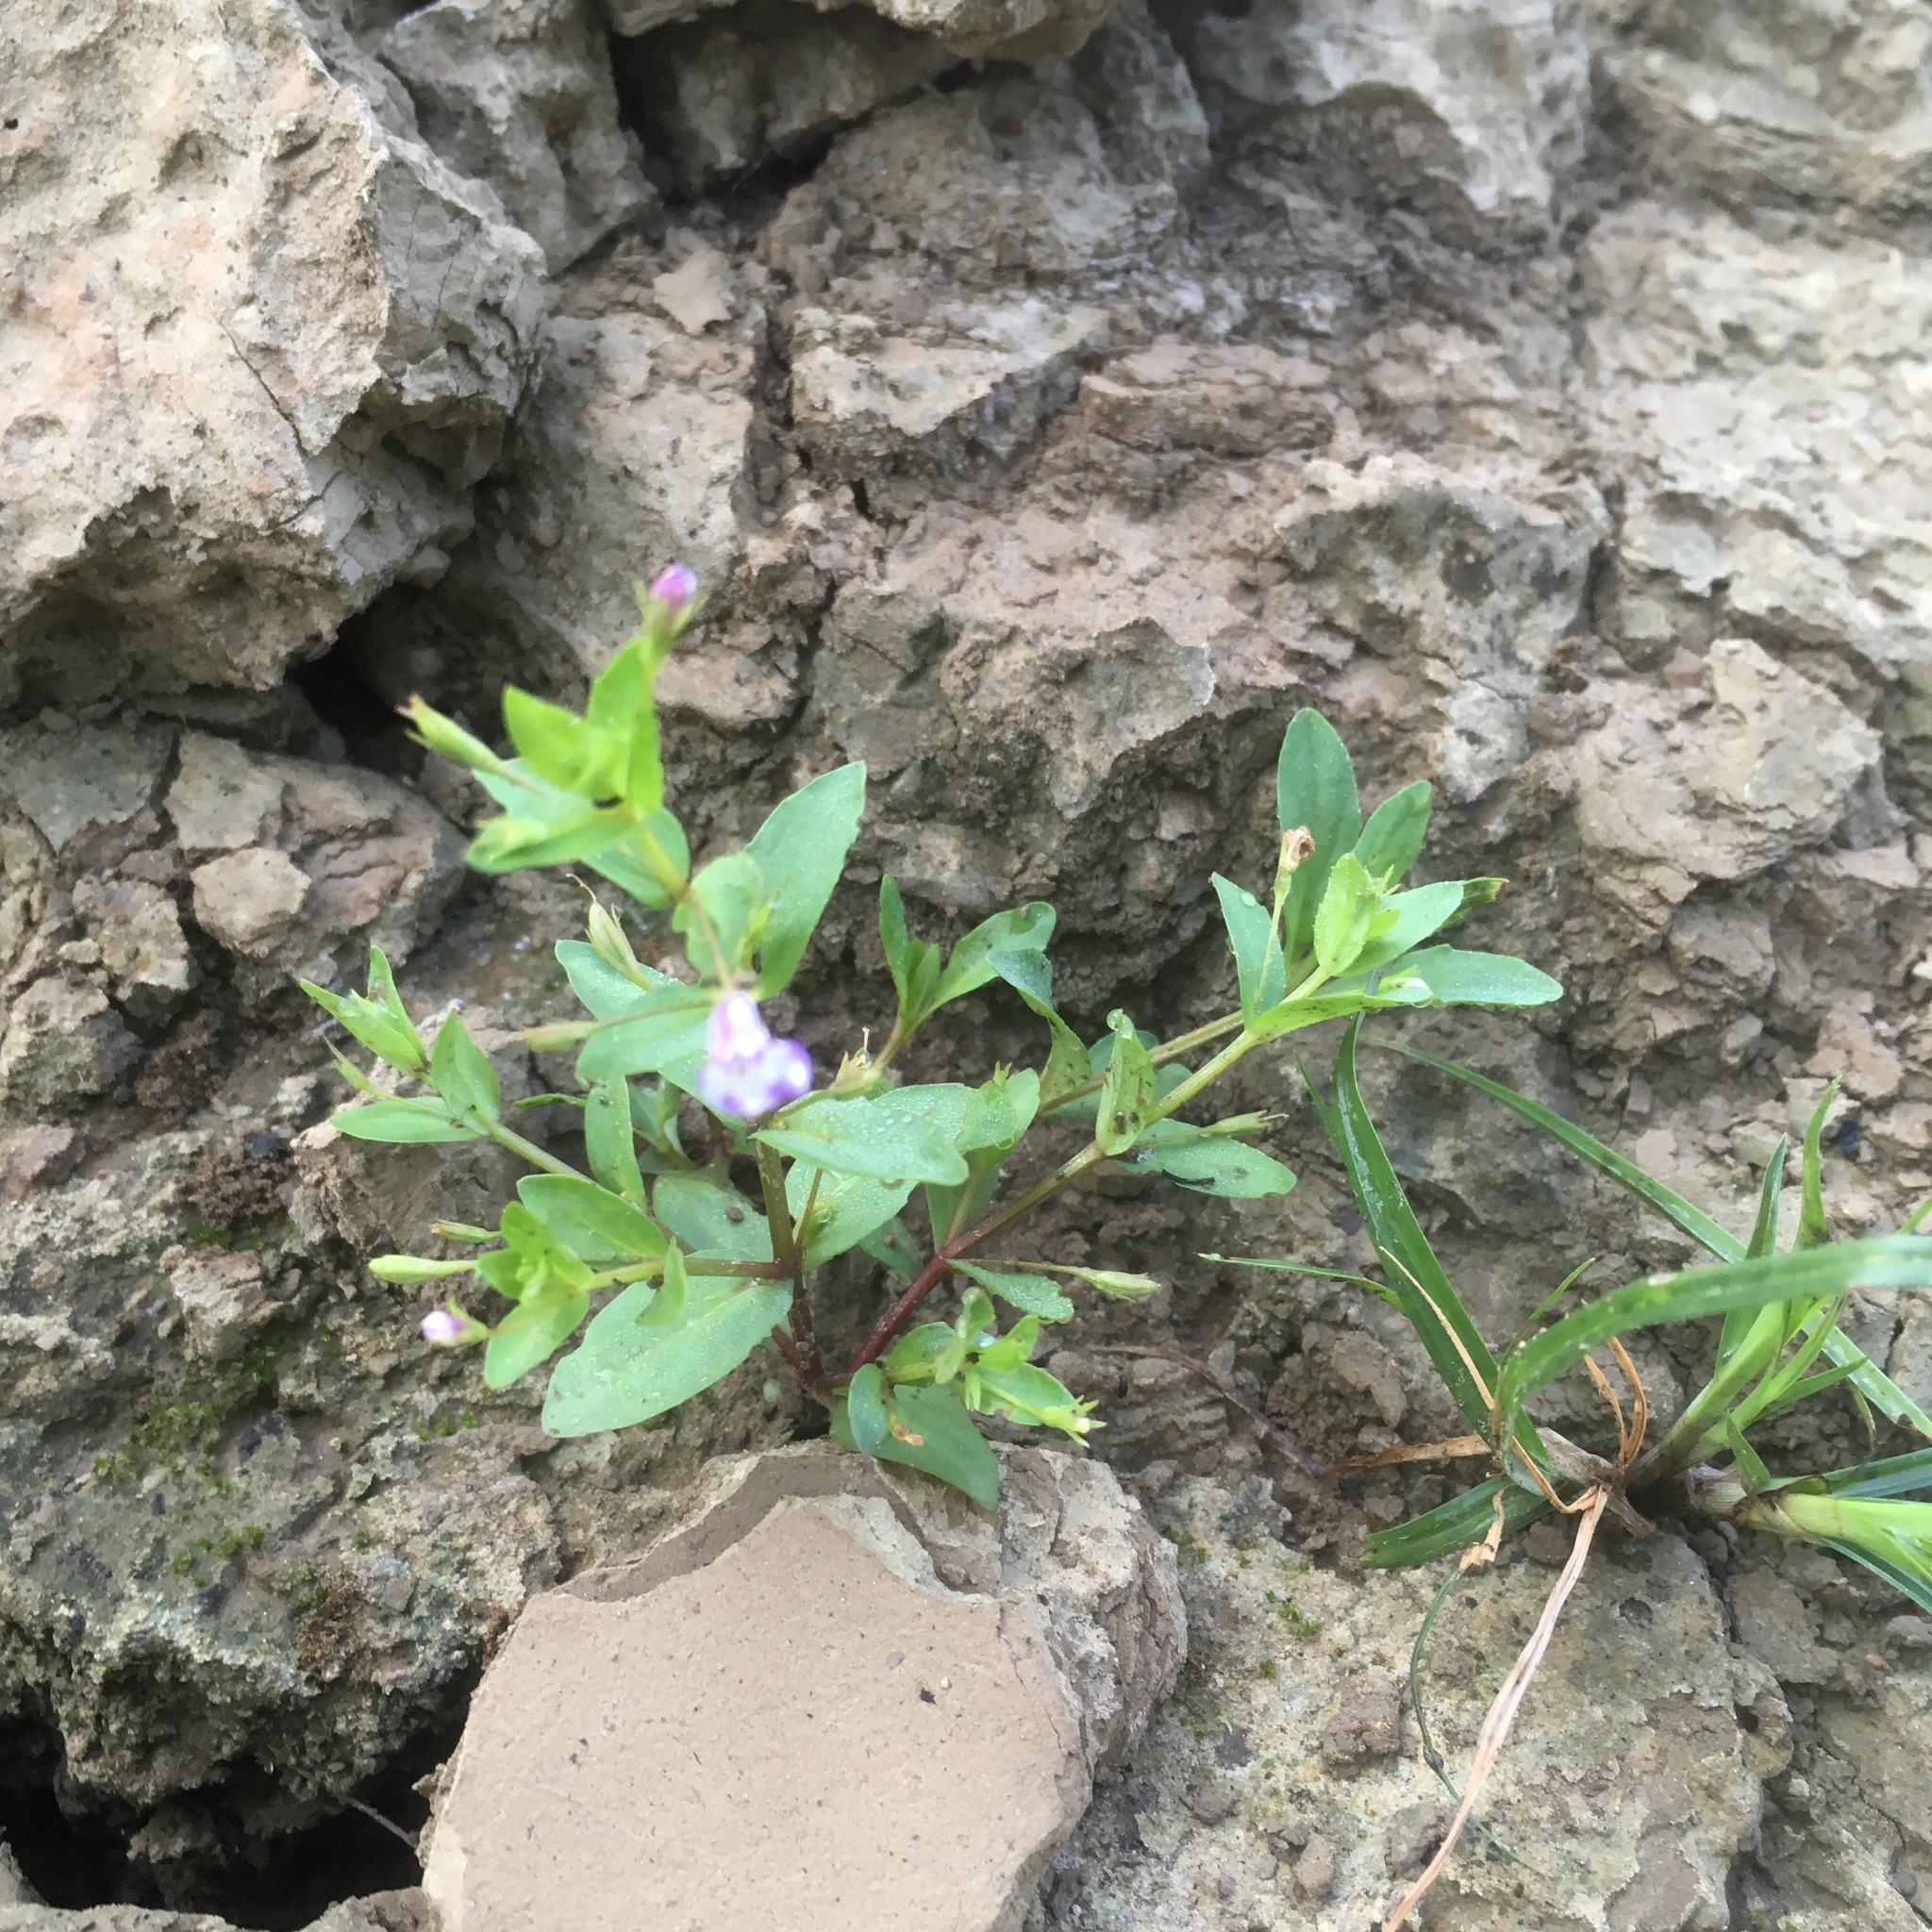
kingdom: Plantae
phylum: Tracheophyta
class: Magnoliopsida
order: Lamiales
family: Linderniaceae
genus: Lindernia
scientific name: Lindernia dubia
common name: Annual false pimpernel
